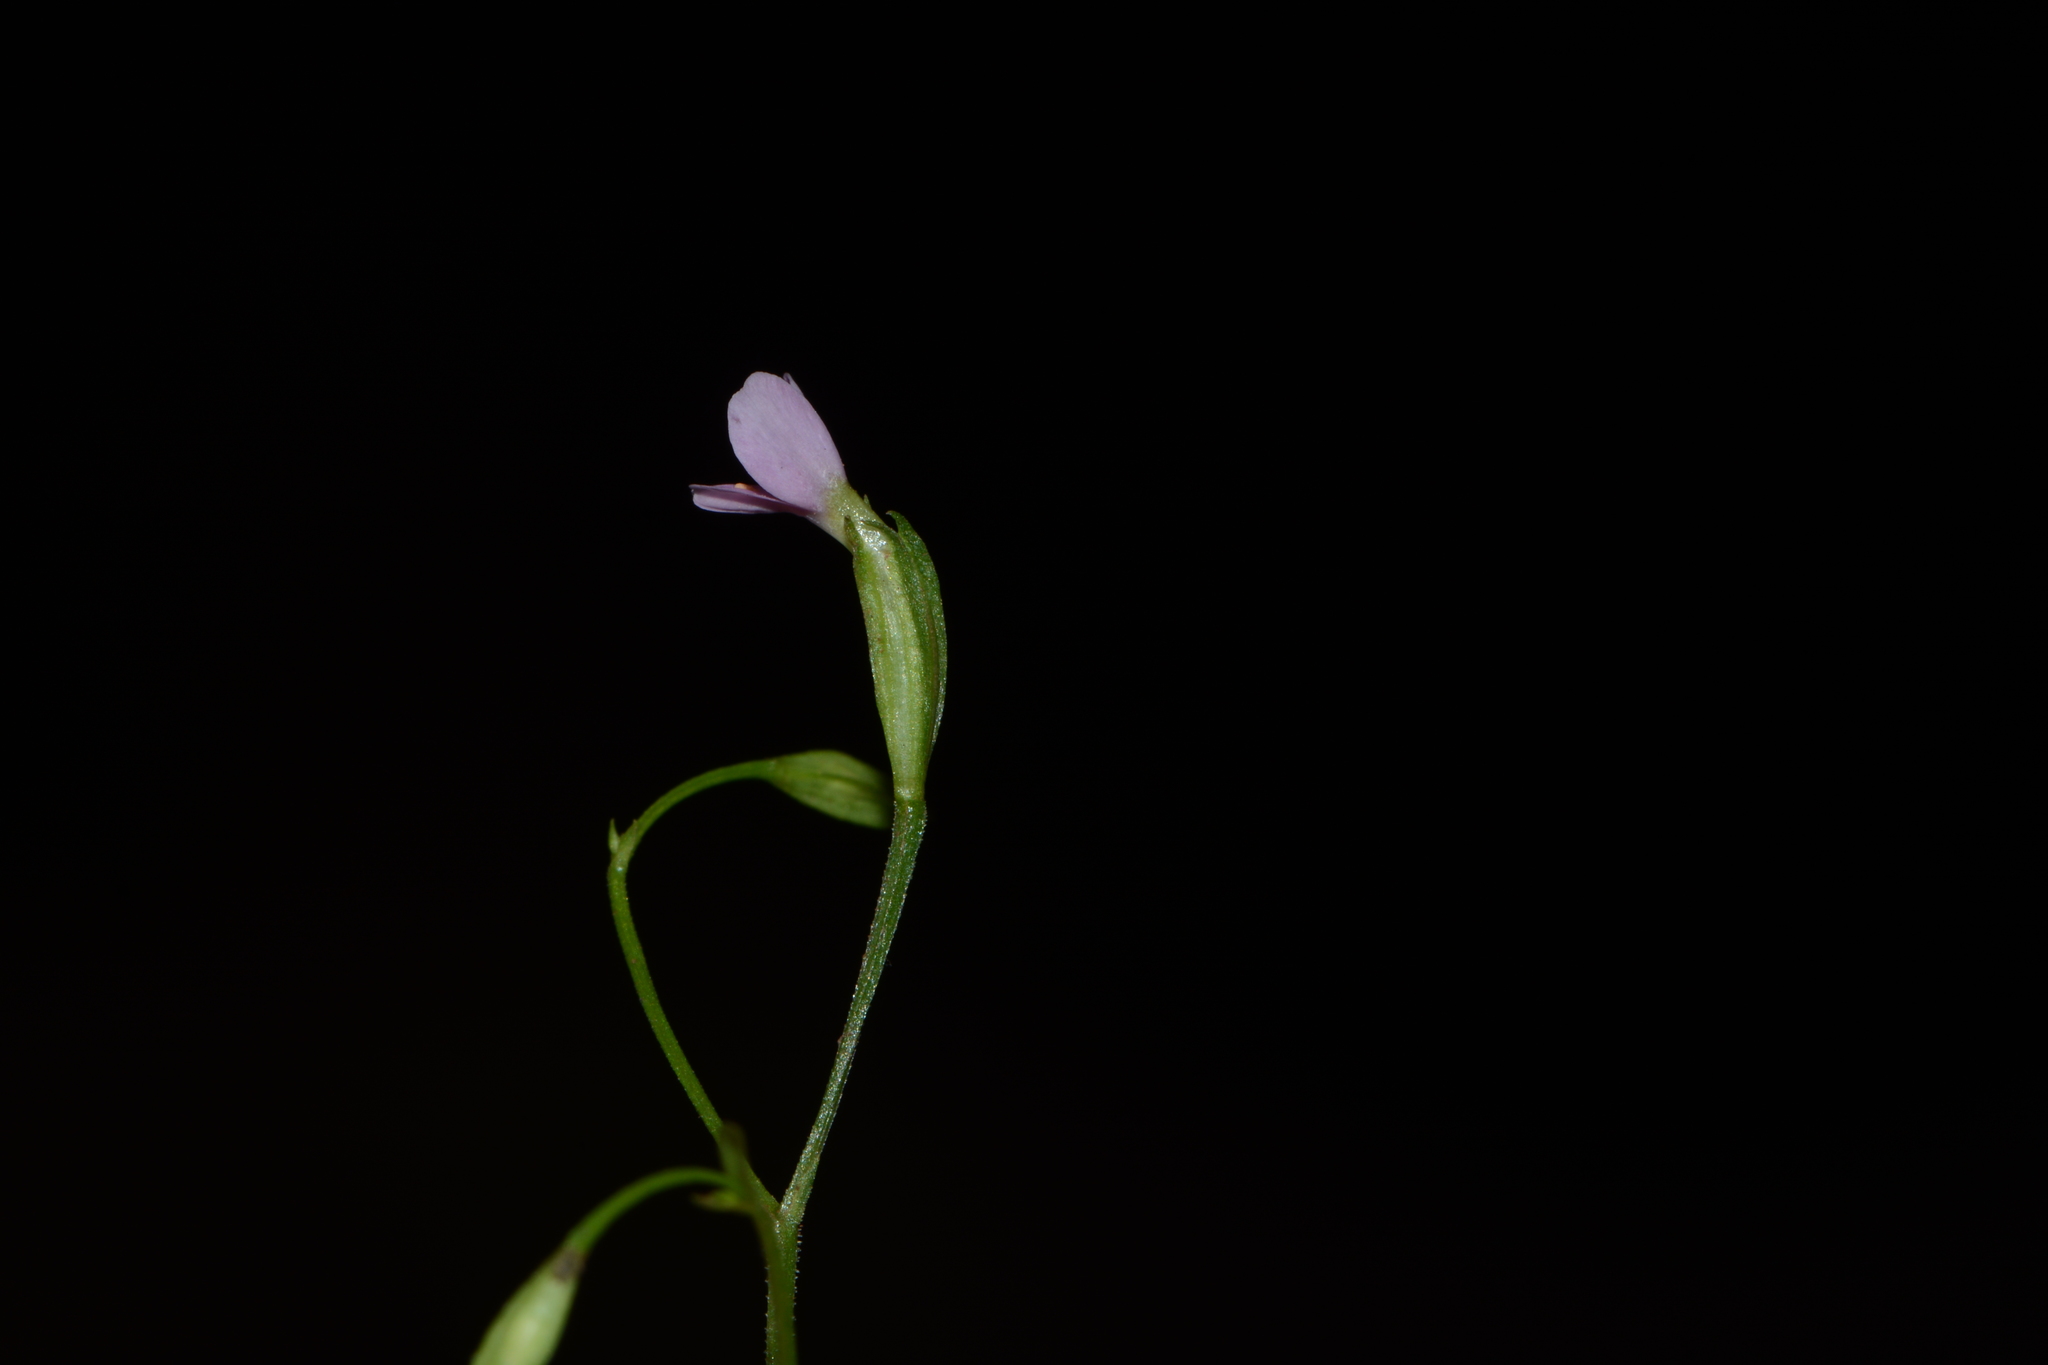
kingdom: Plantae
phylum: Tracheophyta
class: Magnoliopsida
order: Gentianales
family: Gentianaceae
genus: Canscora
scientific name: Canscora tetraptera
